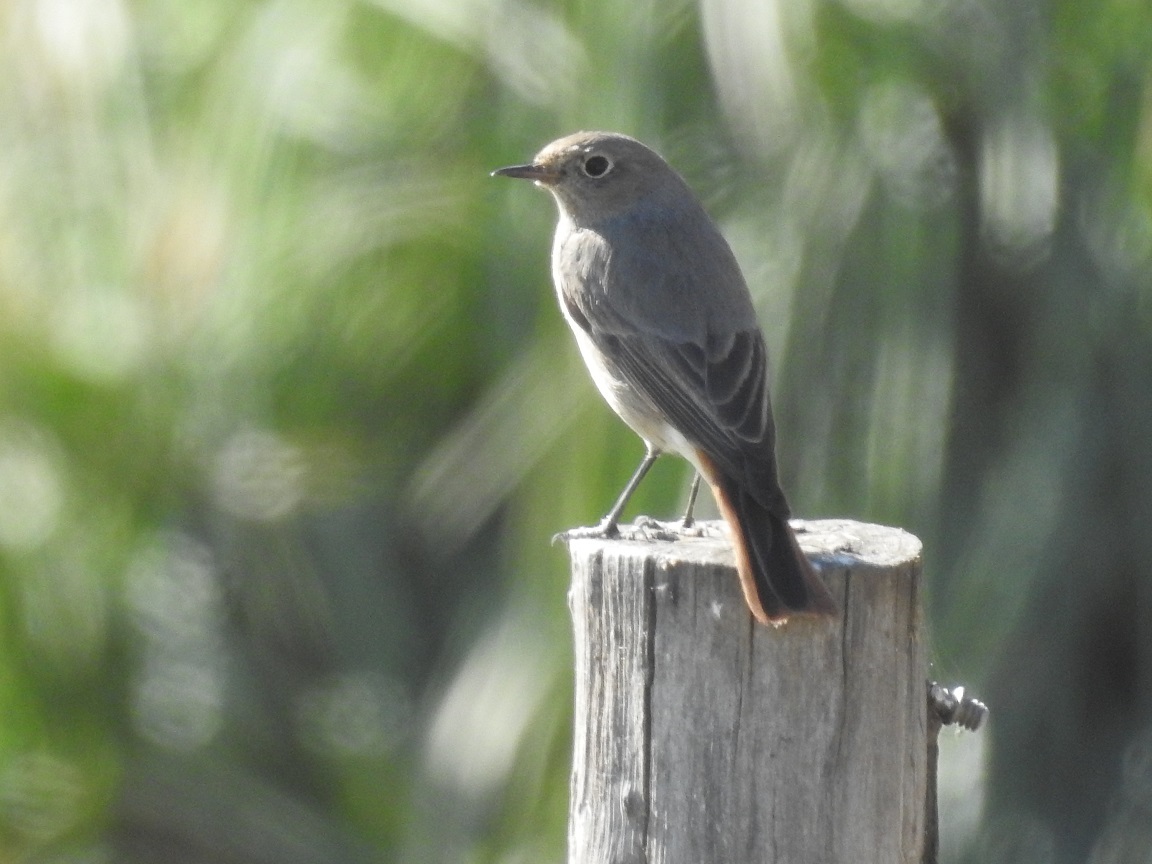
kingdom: Animalia
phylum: Chordata
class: Aves
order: Passeriformes
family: Muscicapidae
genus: Phoenicurus
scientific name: Phoenicurus ochruros
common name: Black redstart
